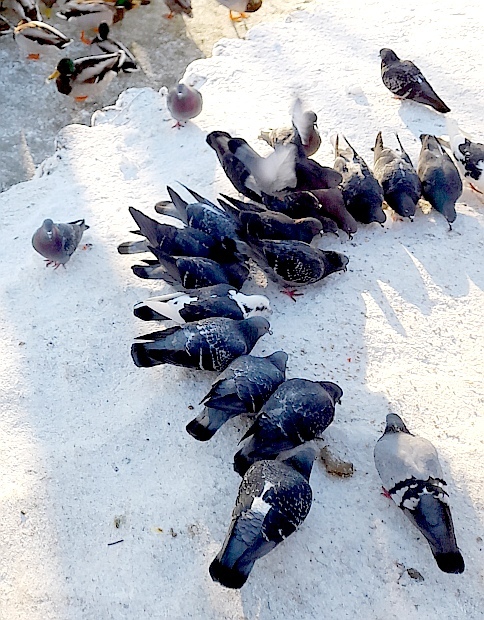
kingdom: Animalia
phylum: Chordata
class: Aves
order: Columbiformes
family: Columbidae
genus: Columba
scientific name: Columba livia
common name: Rock pigeon
